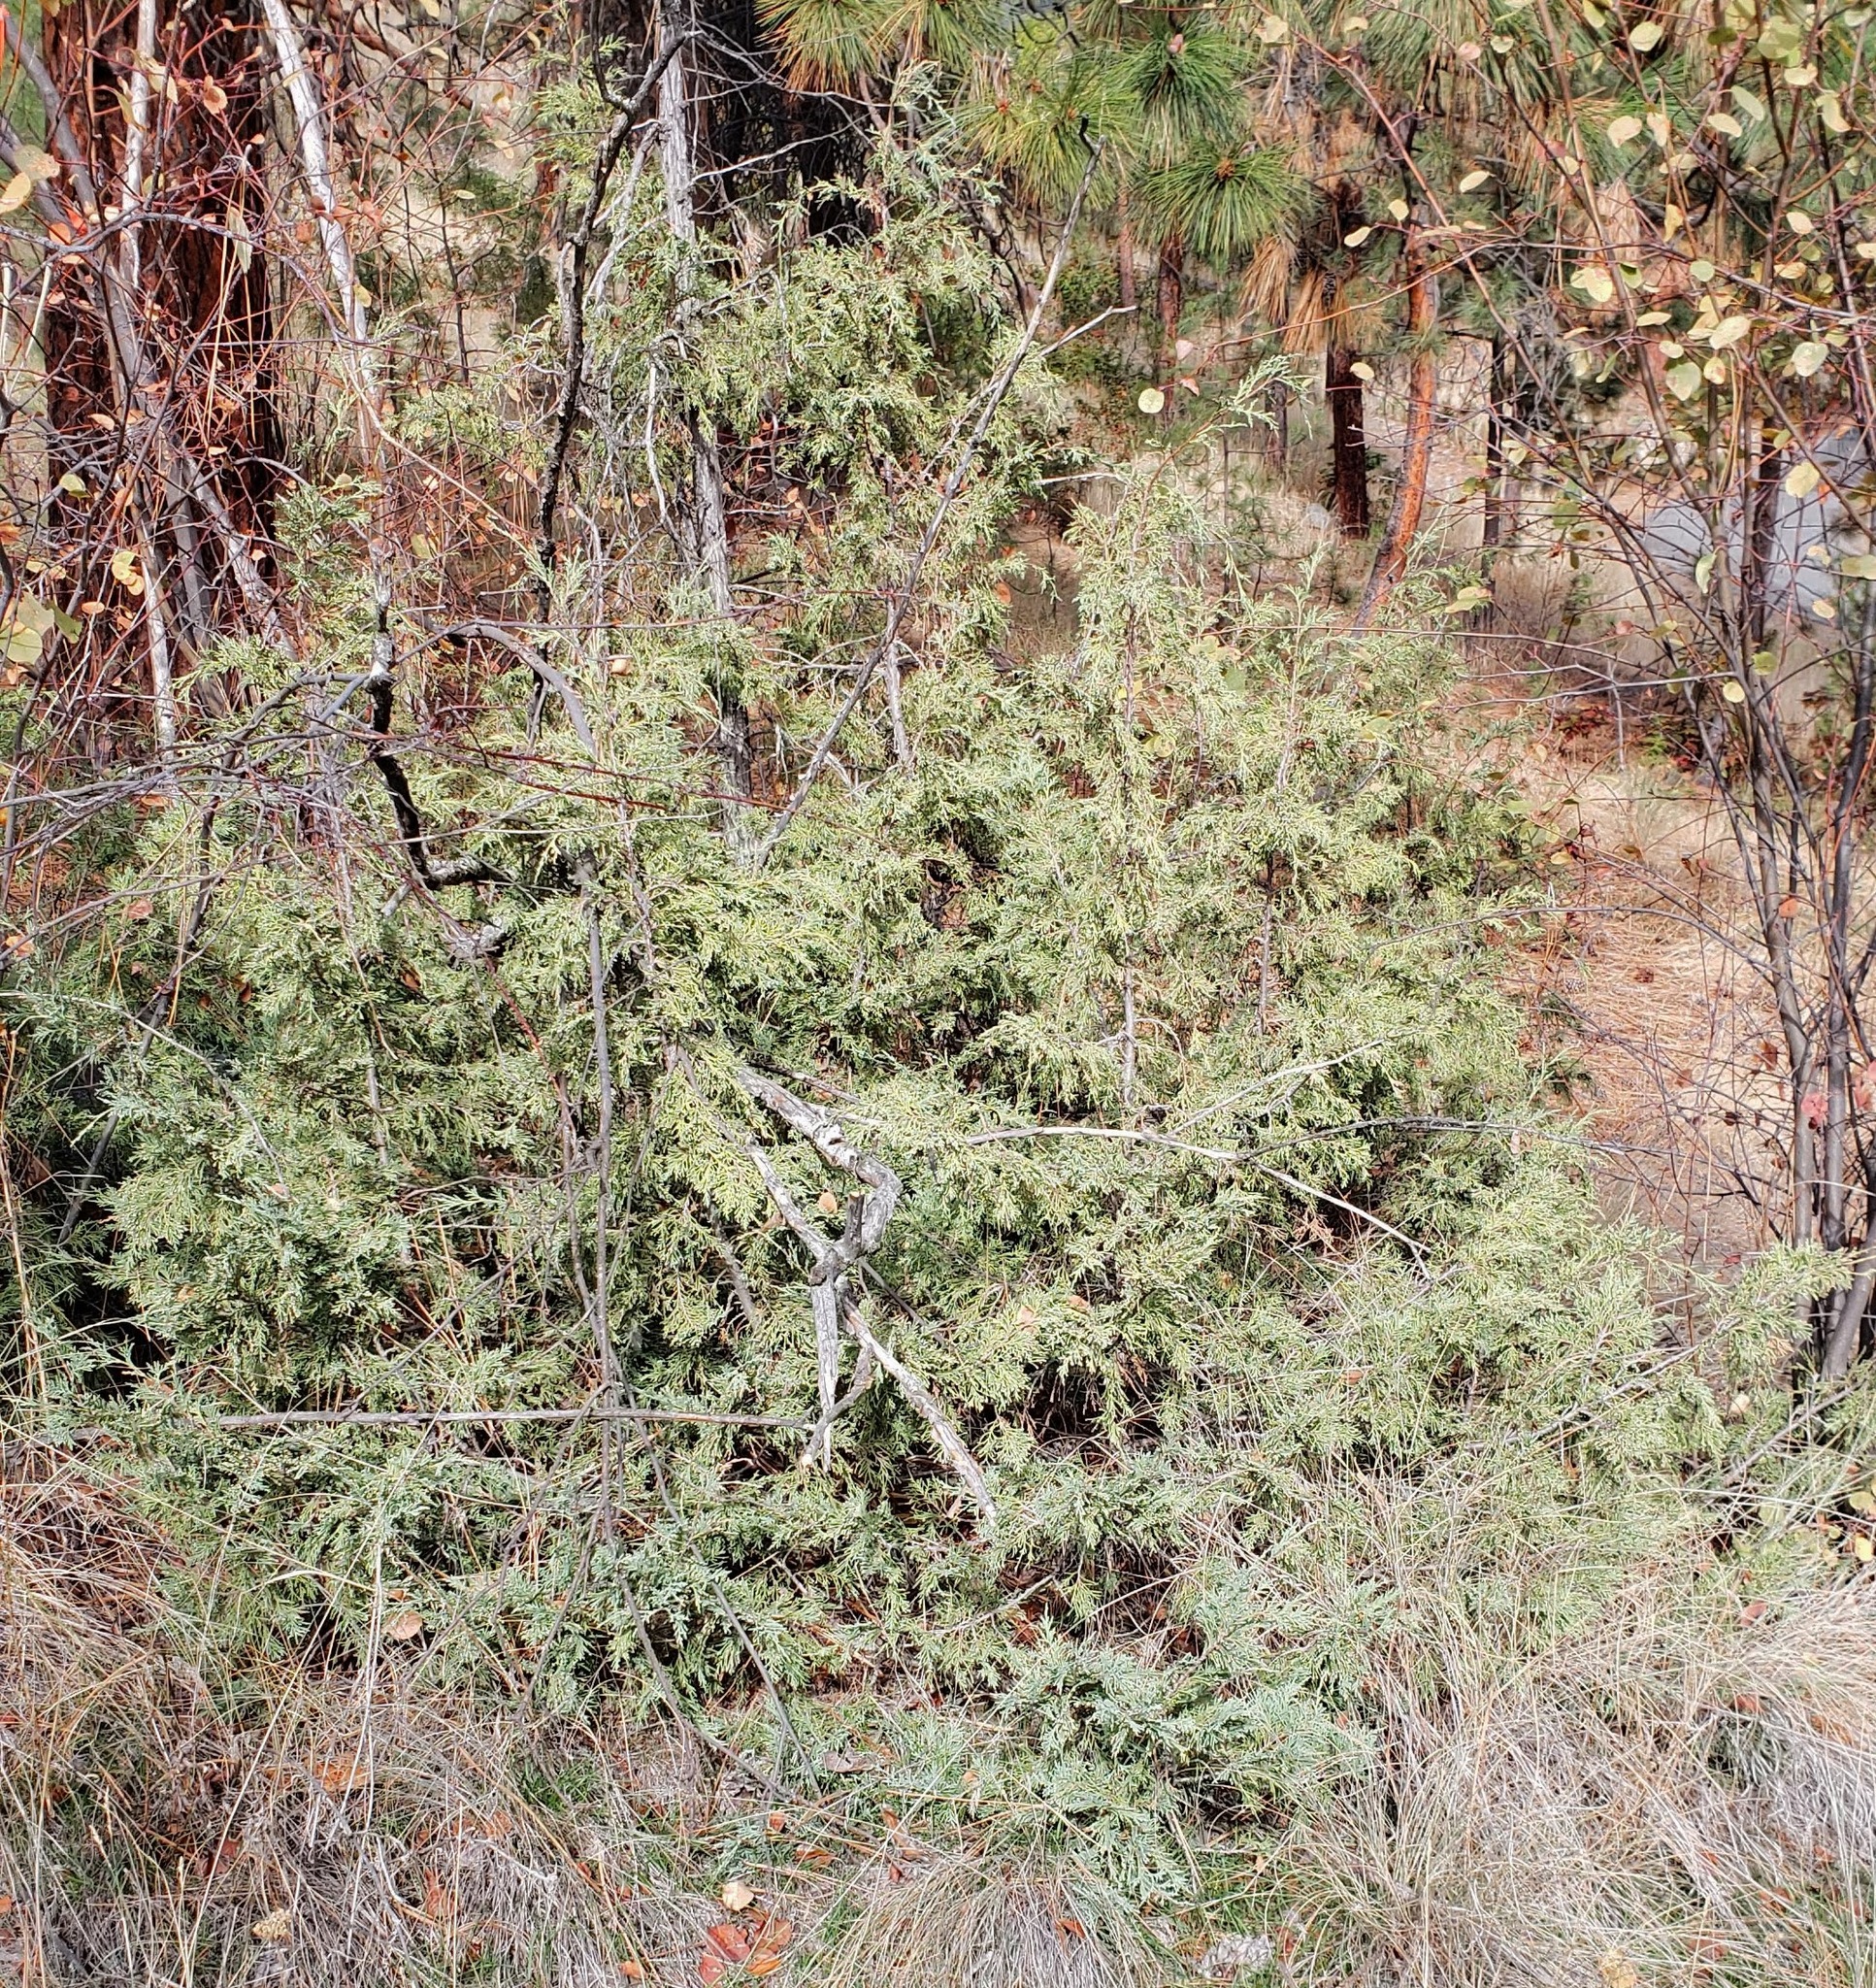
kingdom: Plantae
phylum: Tracheophyta
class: Pinopsida
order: Pinales
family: Cupressaceae
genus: Juniperus
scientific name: Juniperus scopulorum
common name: Rocky mountain juniper
